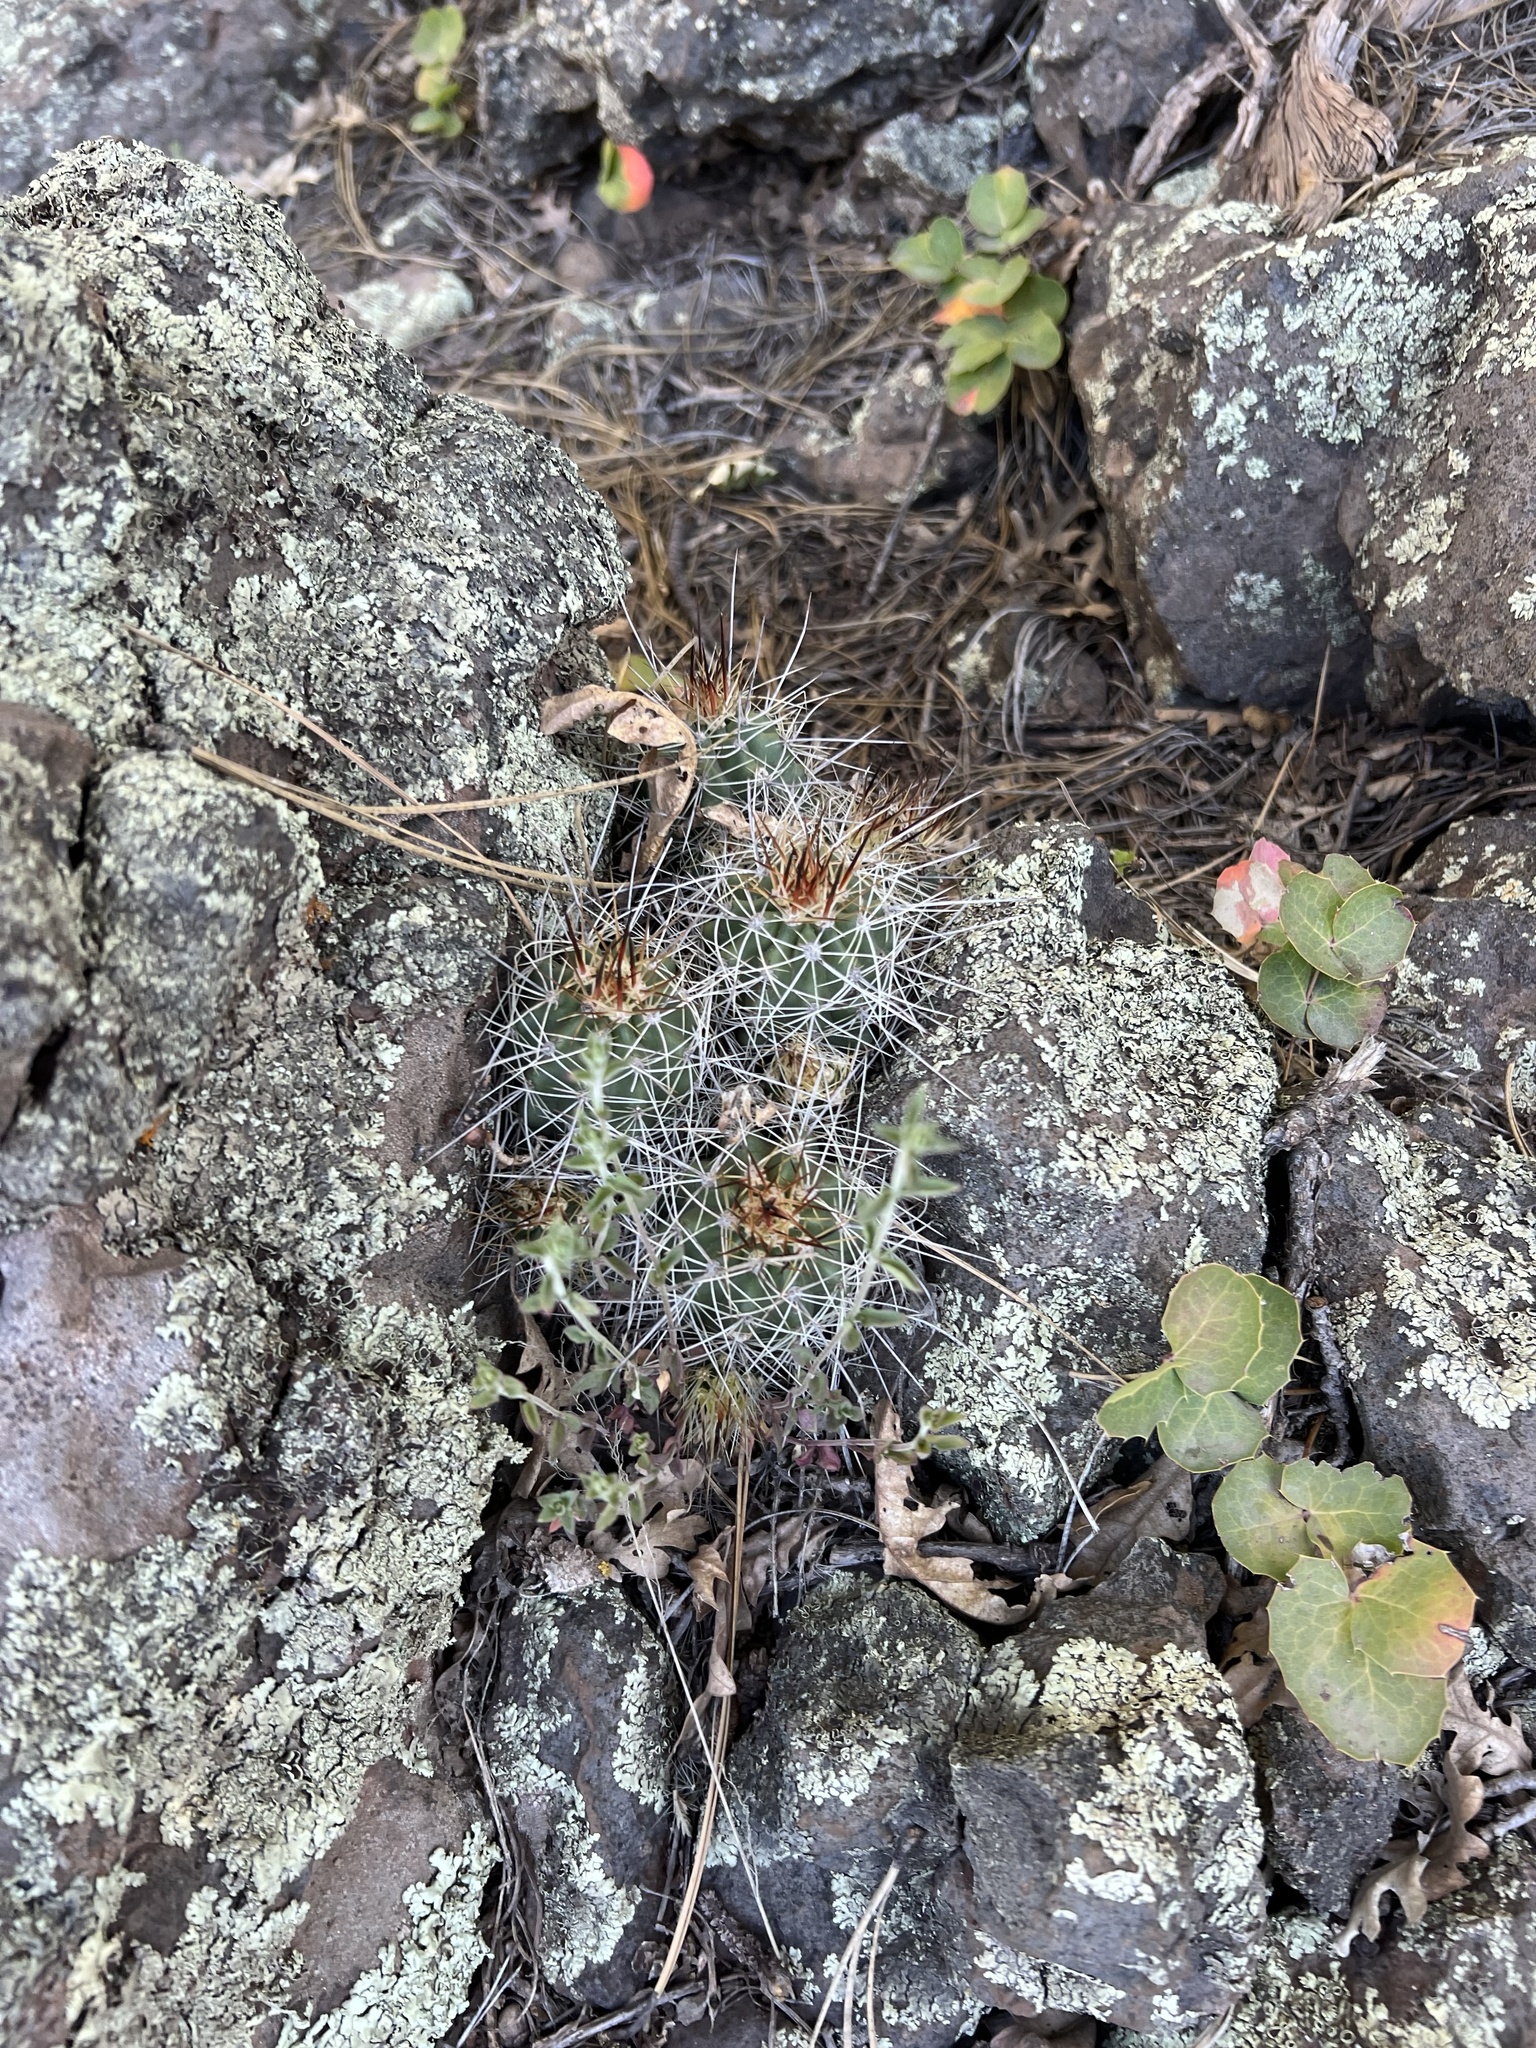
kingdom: Plantae
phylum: Tracheophyta
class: Magnoliopsida
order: Caryophyllales
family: Cactaceae
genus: Echinocereus
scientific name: Echinocereus bakeri
